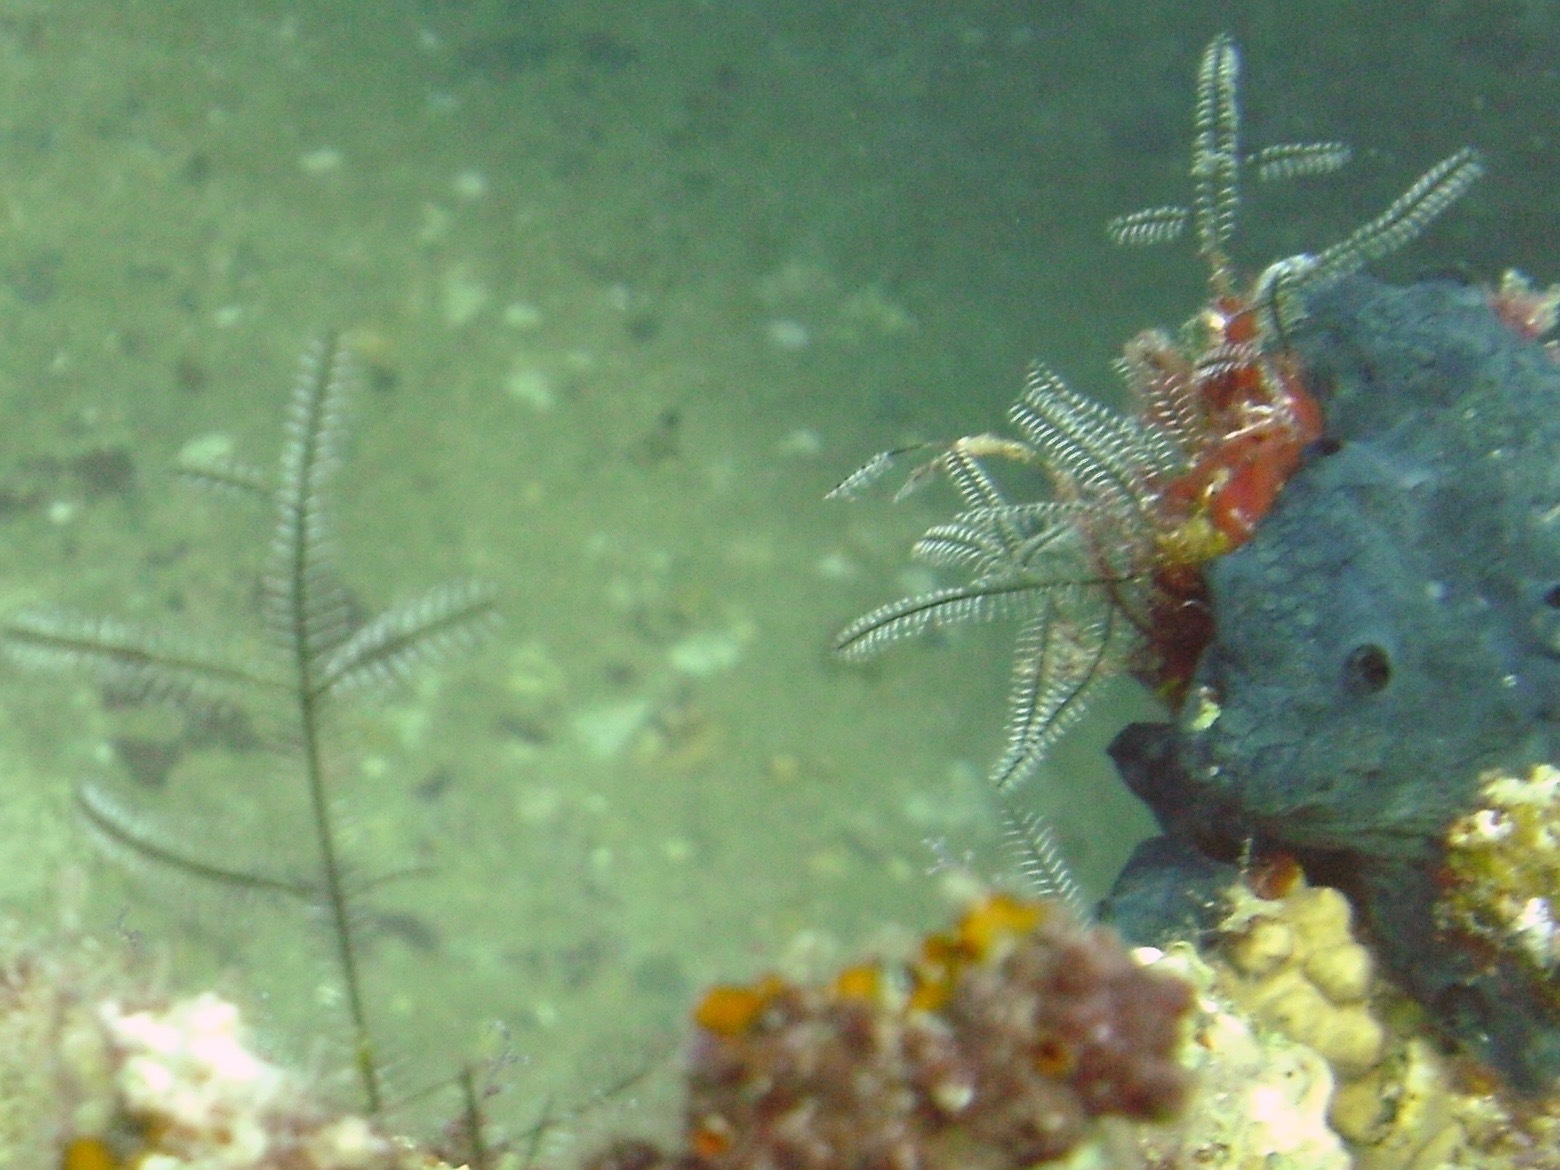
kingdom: Animalia
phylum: Cnidaria
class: Hydrozoa
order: Leptothecata
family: Aglaopheniidae
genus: Macrorhynchia
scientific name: Macrorhynchia philippina
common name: Stinging hydroid
